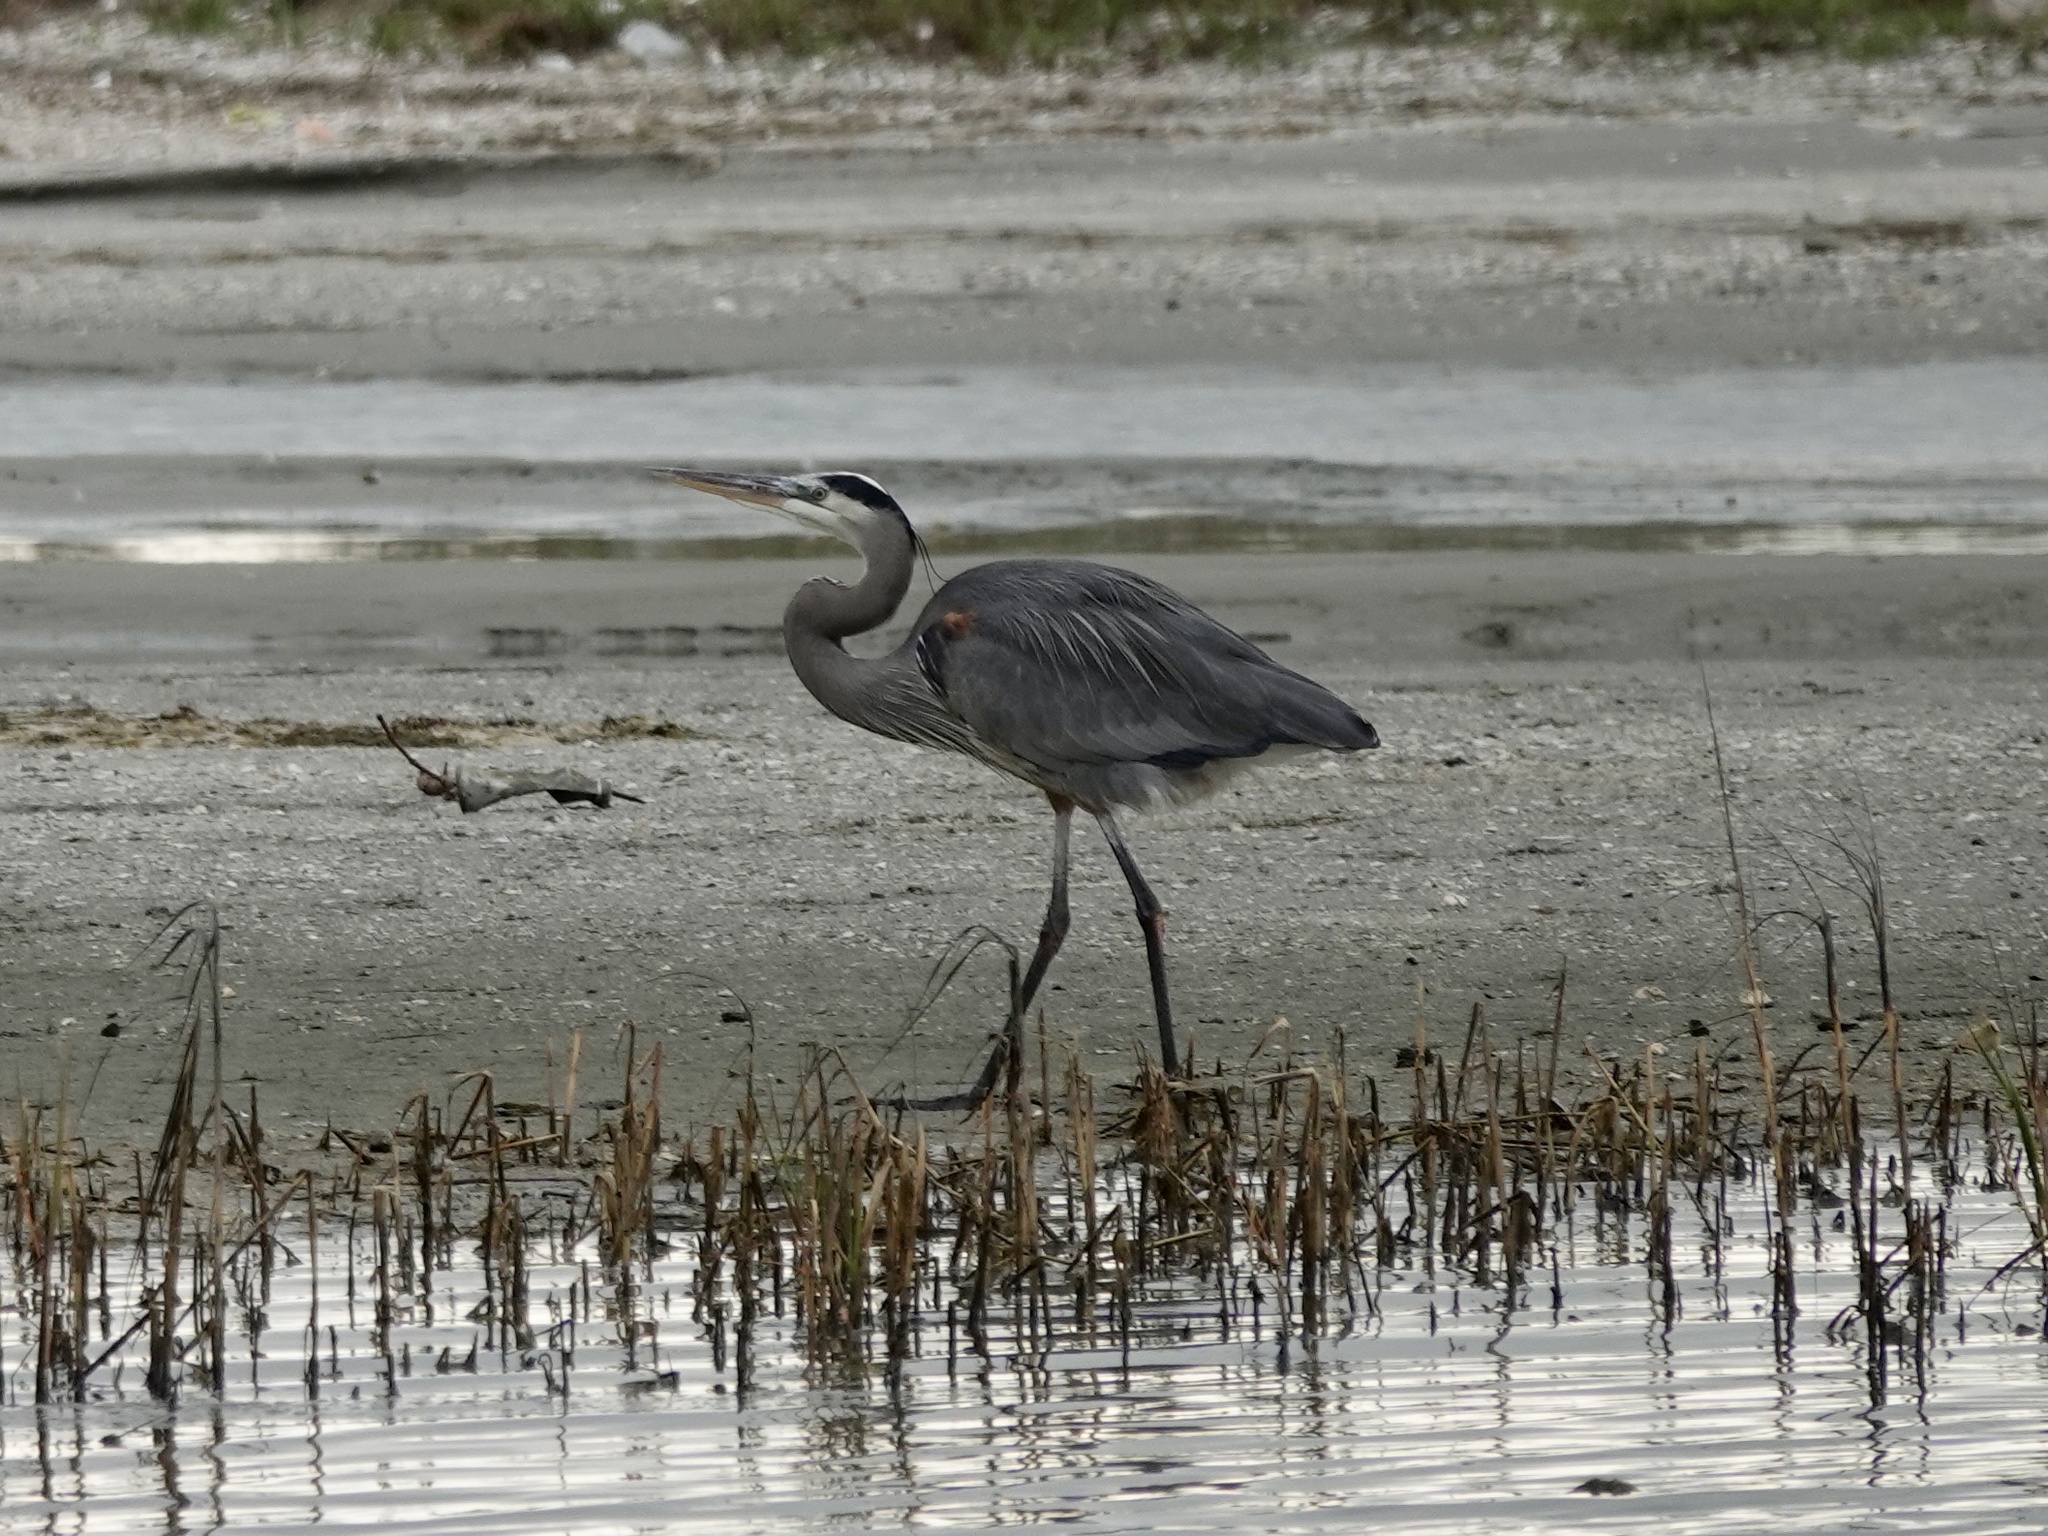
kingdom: Animalia
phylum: Chordata
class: Aves
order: Pelecaniformes
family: Ardeidae
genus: Ardea
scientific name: Ardea herodias
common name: Great blue heron
